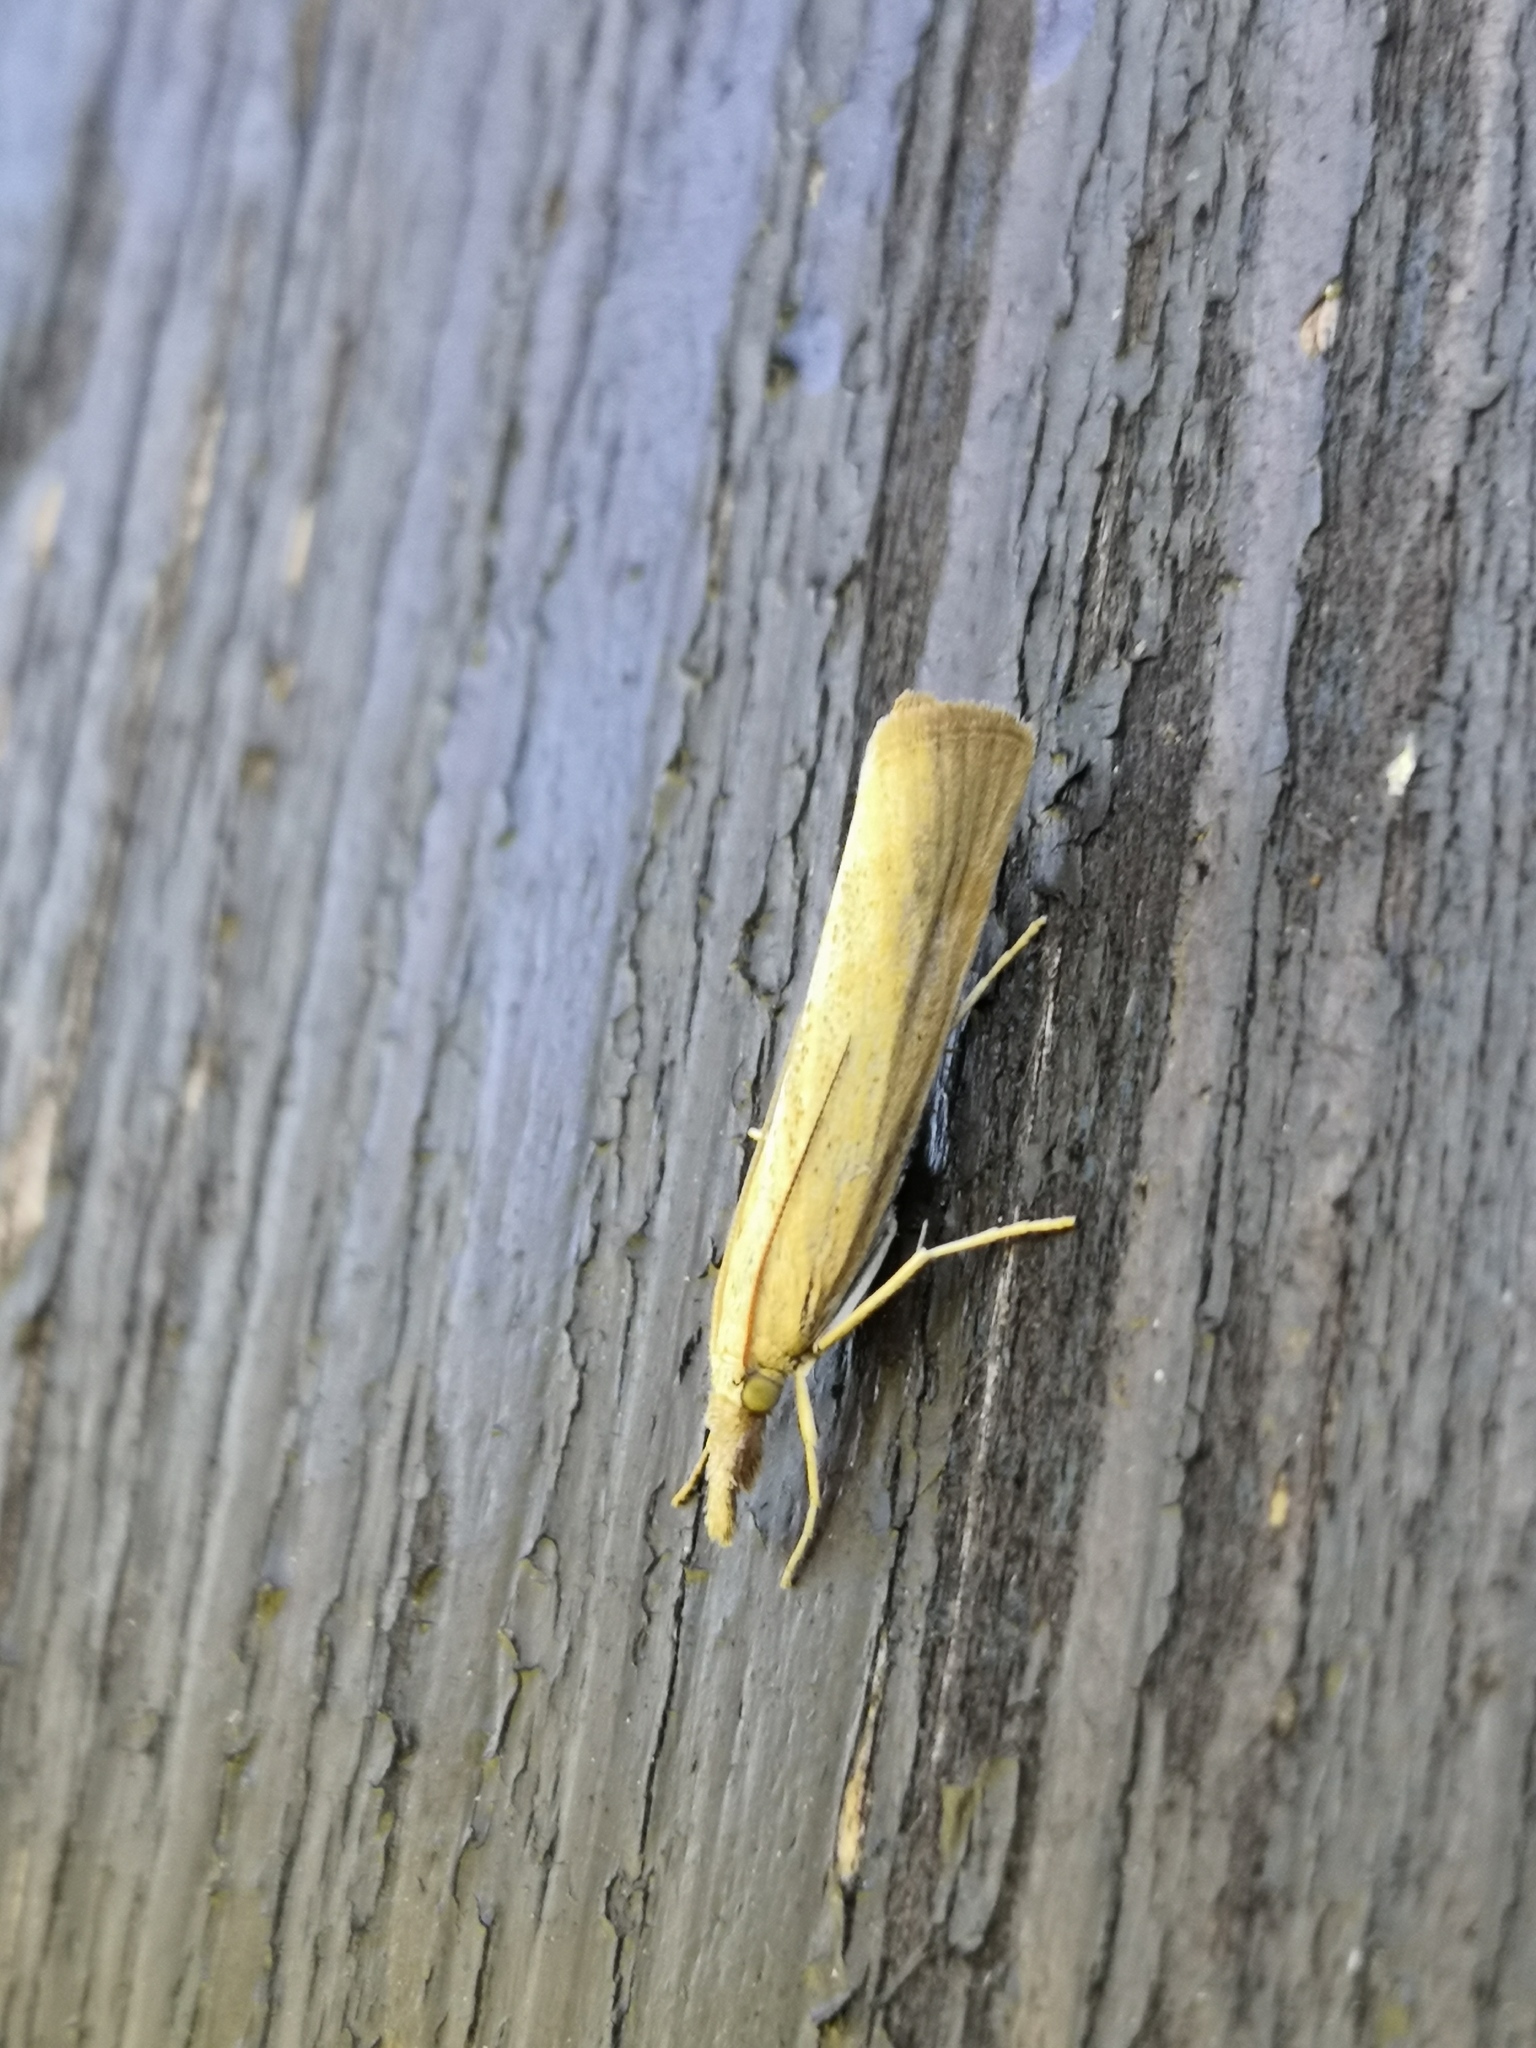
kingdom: Animalia
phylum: Arthropoda
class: Insecta
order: Lepidoptera
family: Crambidae
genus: Pediasia
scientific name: Pediasia luteella
